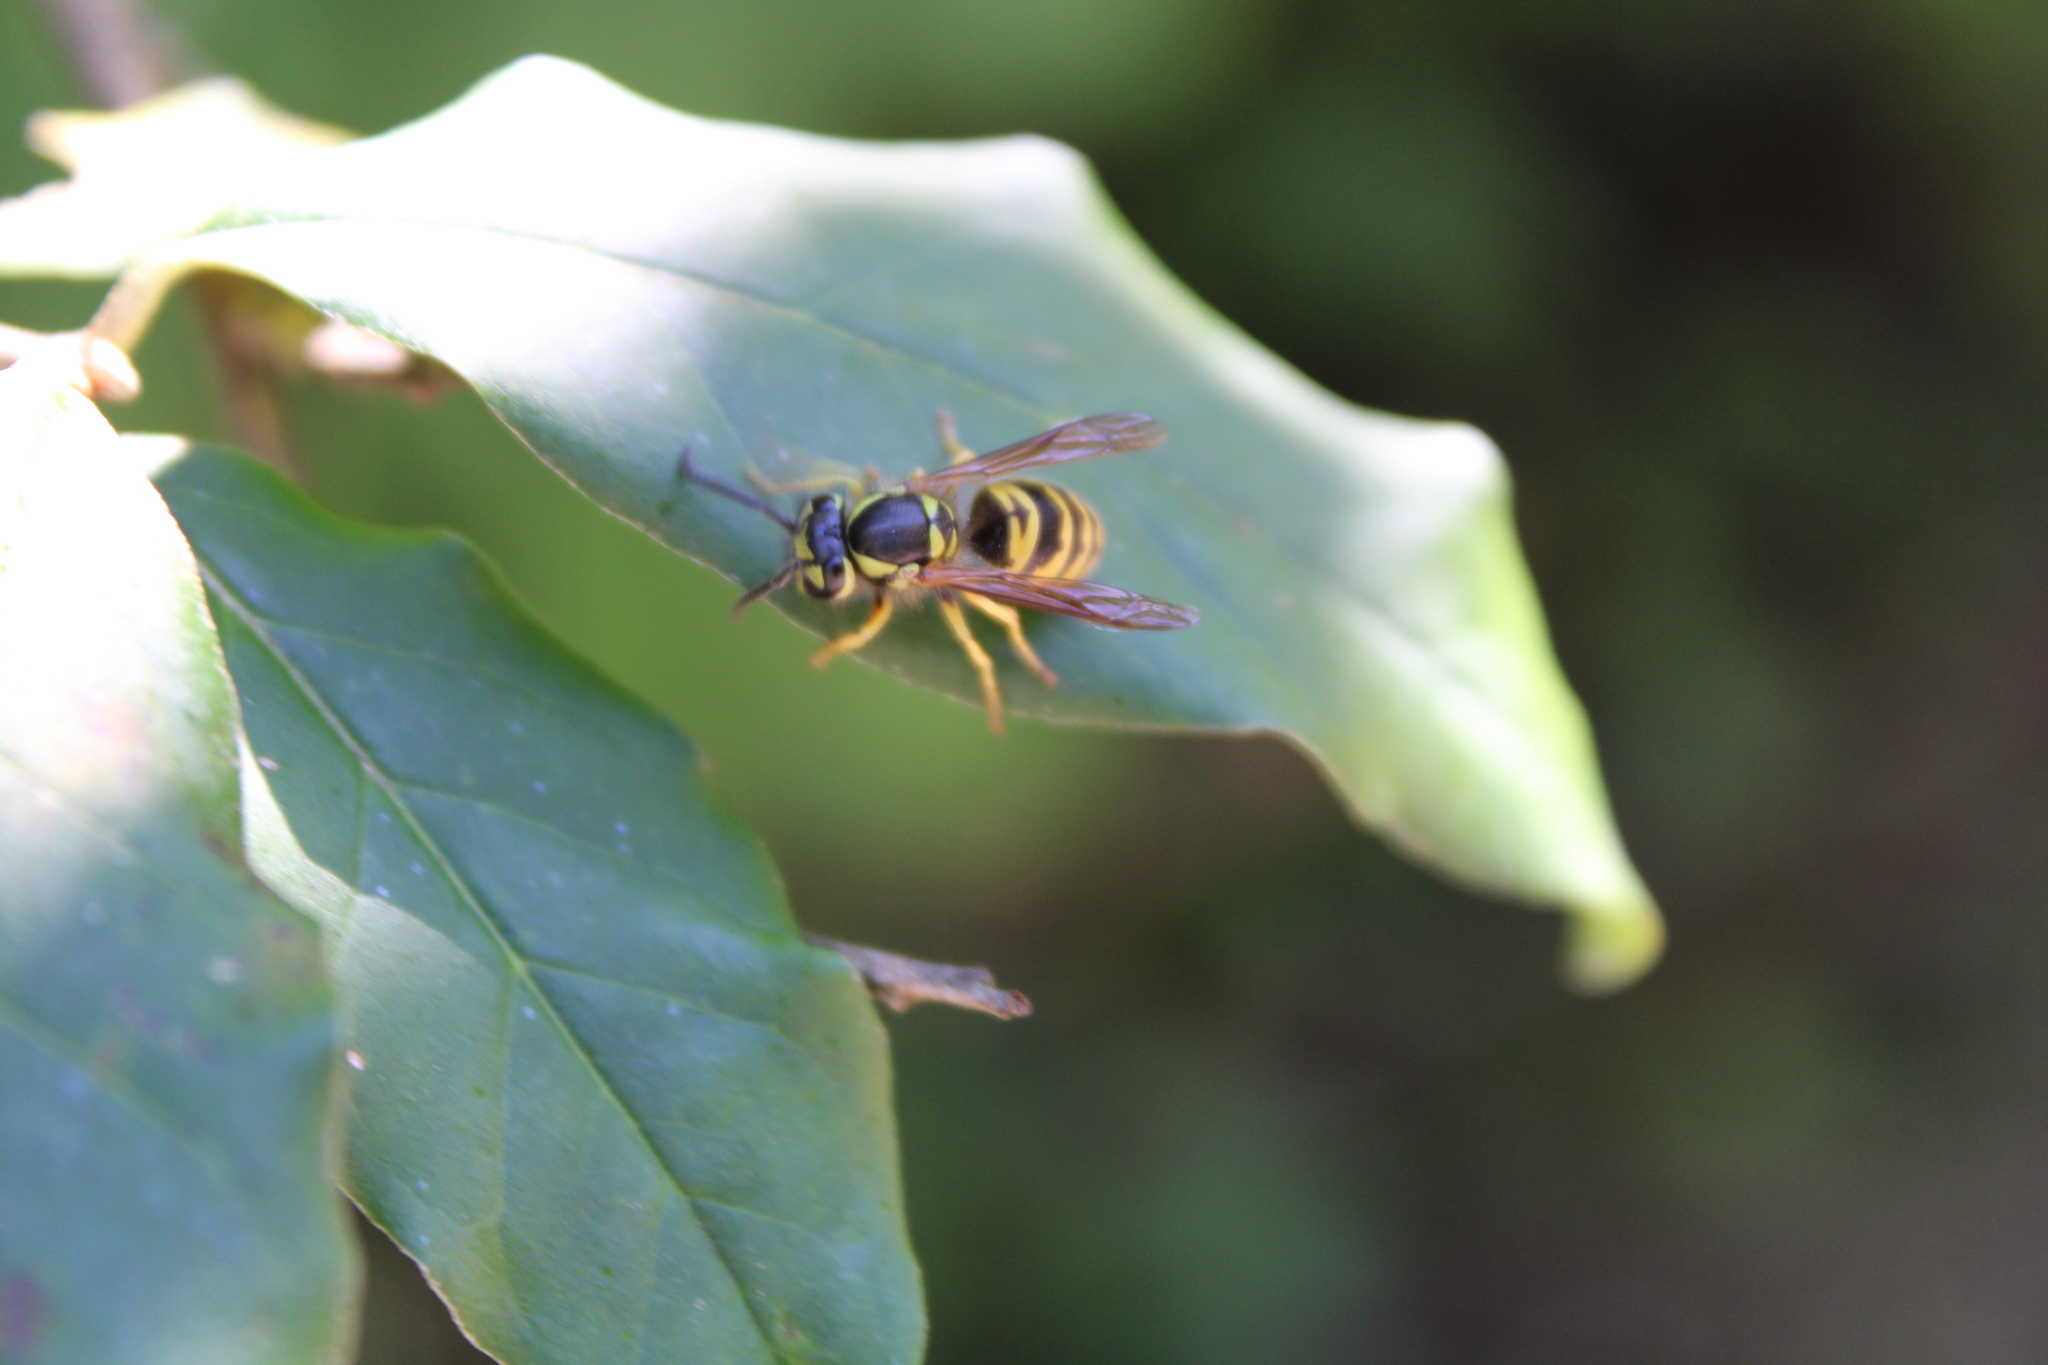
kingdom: Animalia
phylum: Arthropoda
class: Insecta
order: Hymenoptera
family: Vespidae
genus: Vespula
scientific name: Vespula maculifrons
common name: Eastern yellowjacket
